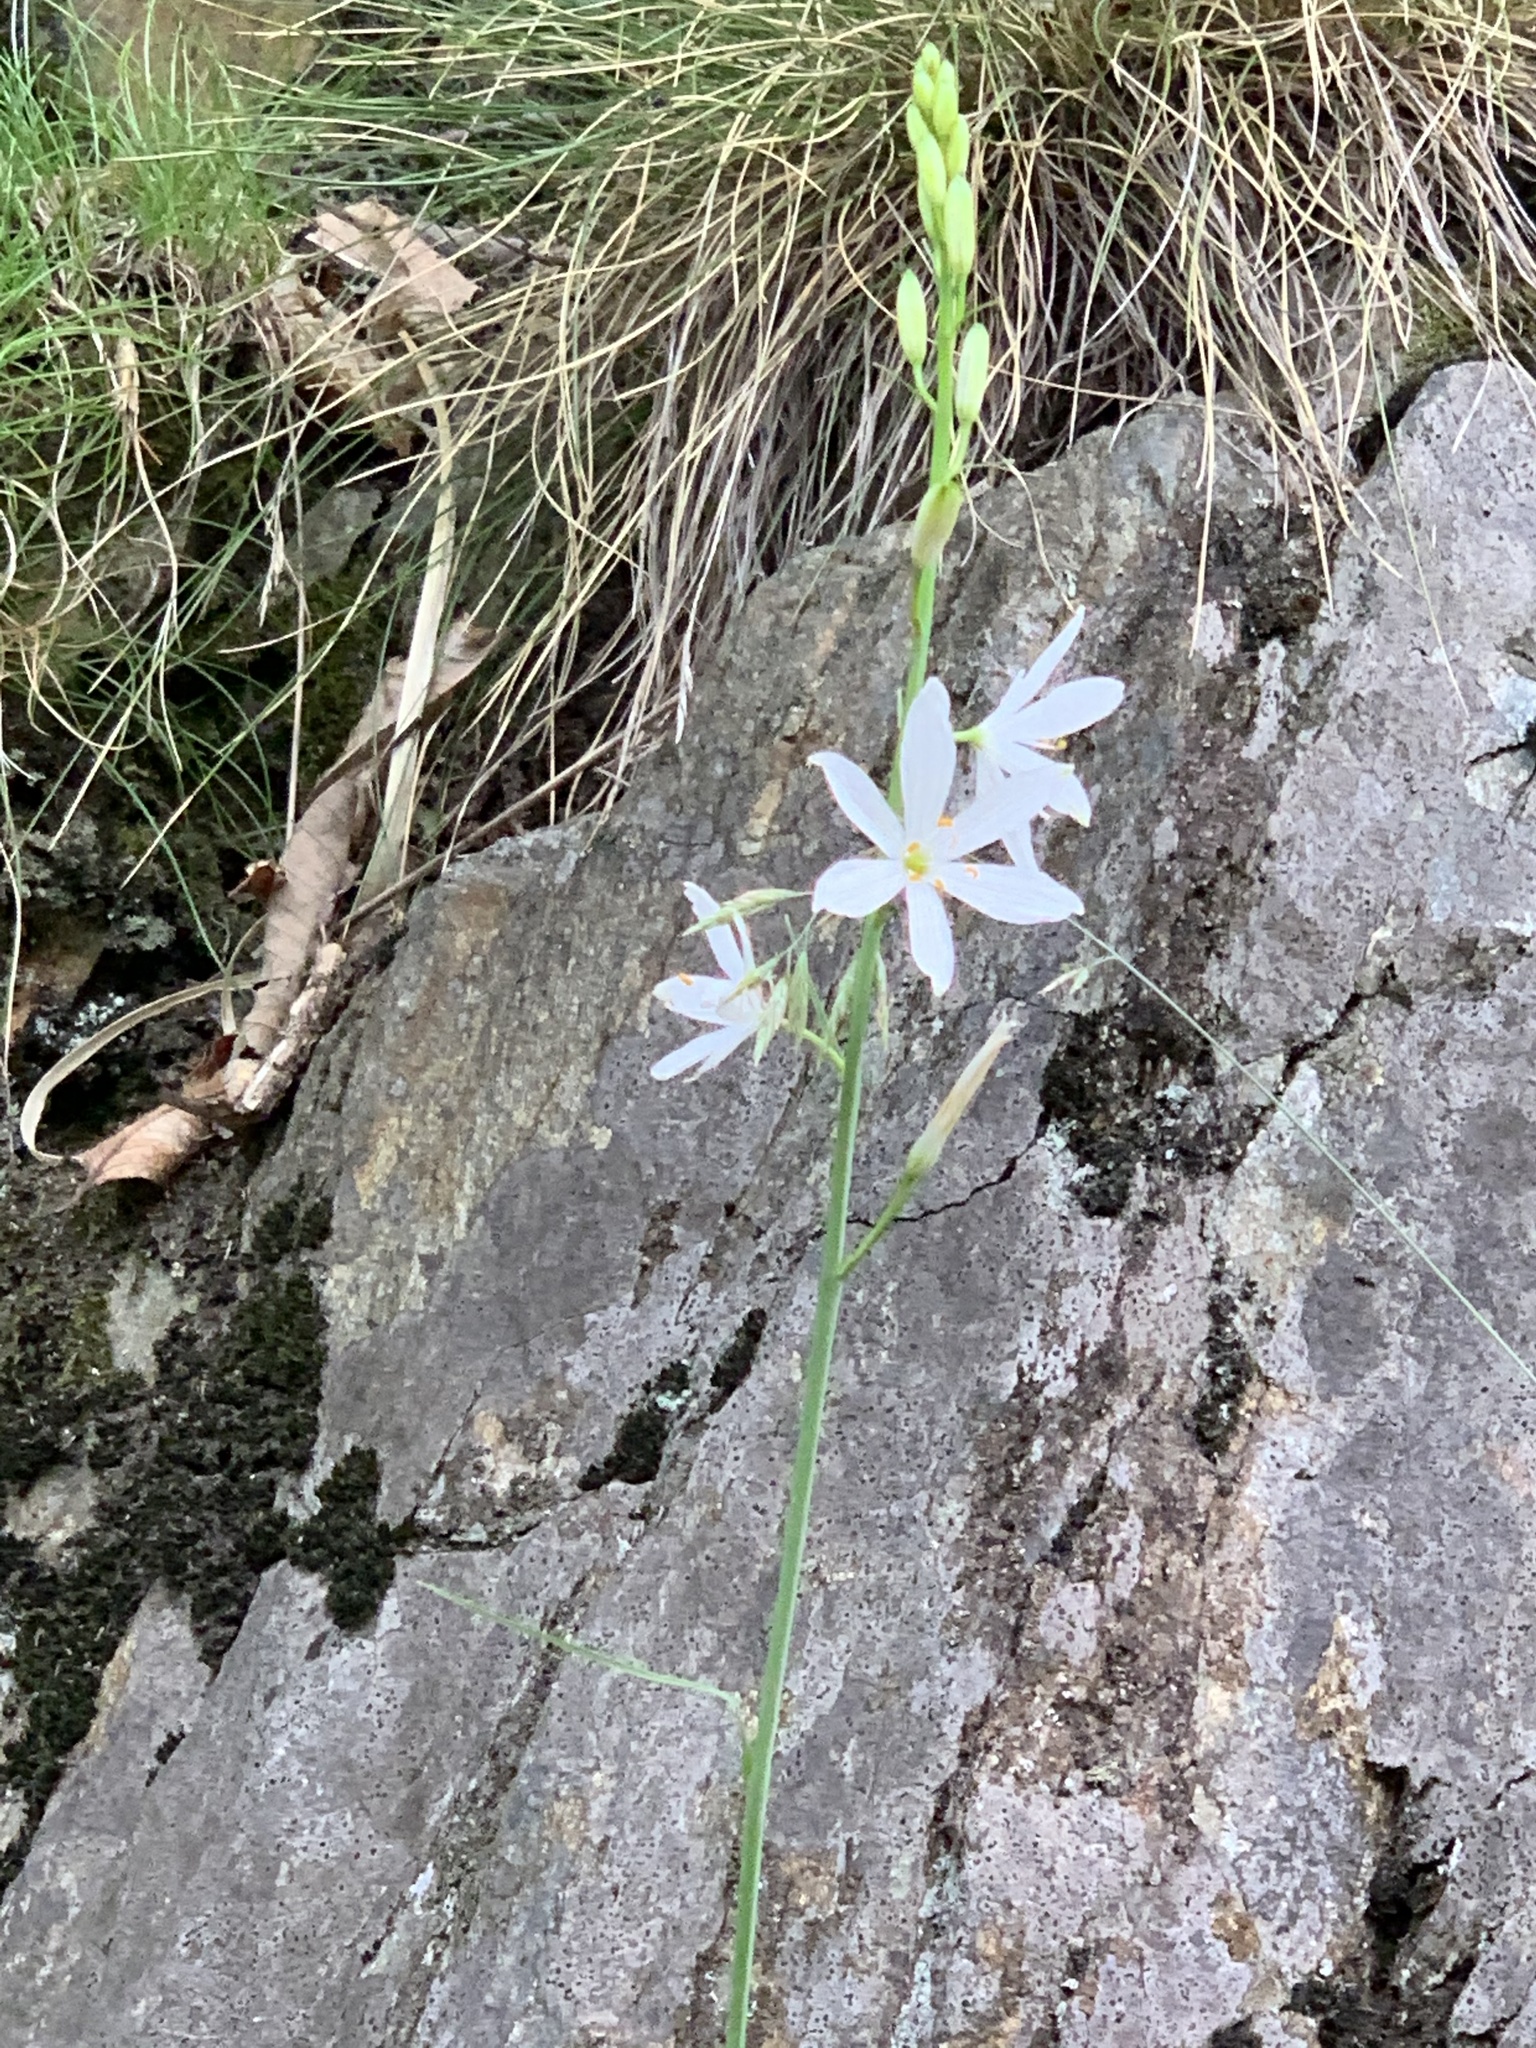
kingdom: Plantae
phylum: Tracheophyta
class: Liliopsida
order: Asparagales
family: Asparagaceae
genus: Anthericum
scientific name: Anthericum liliago
